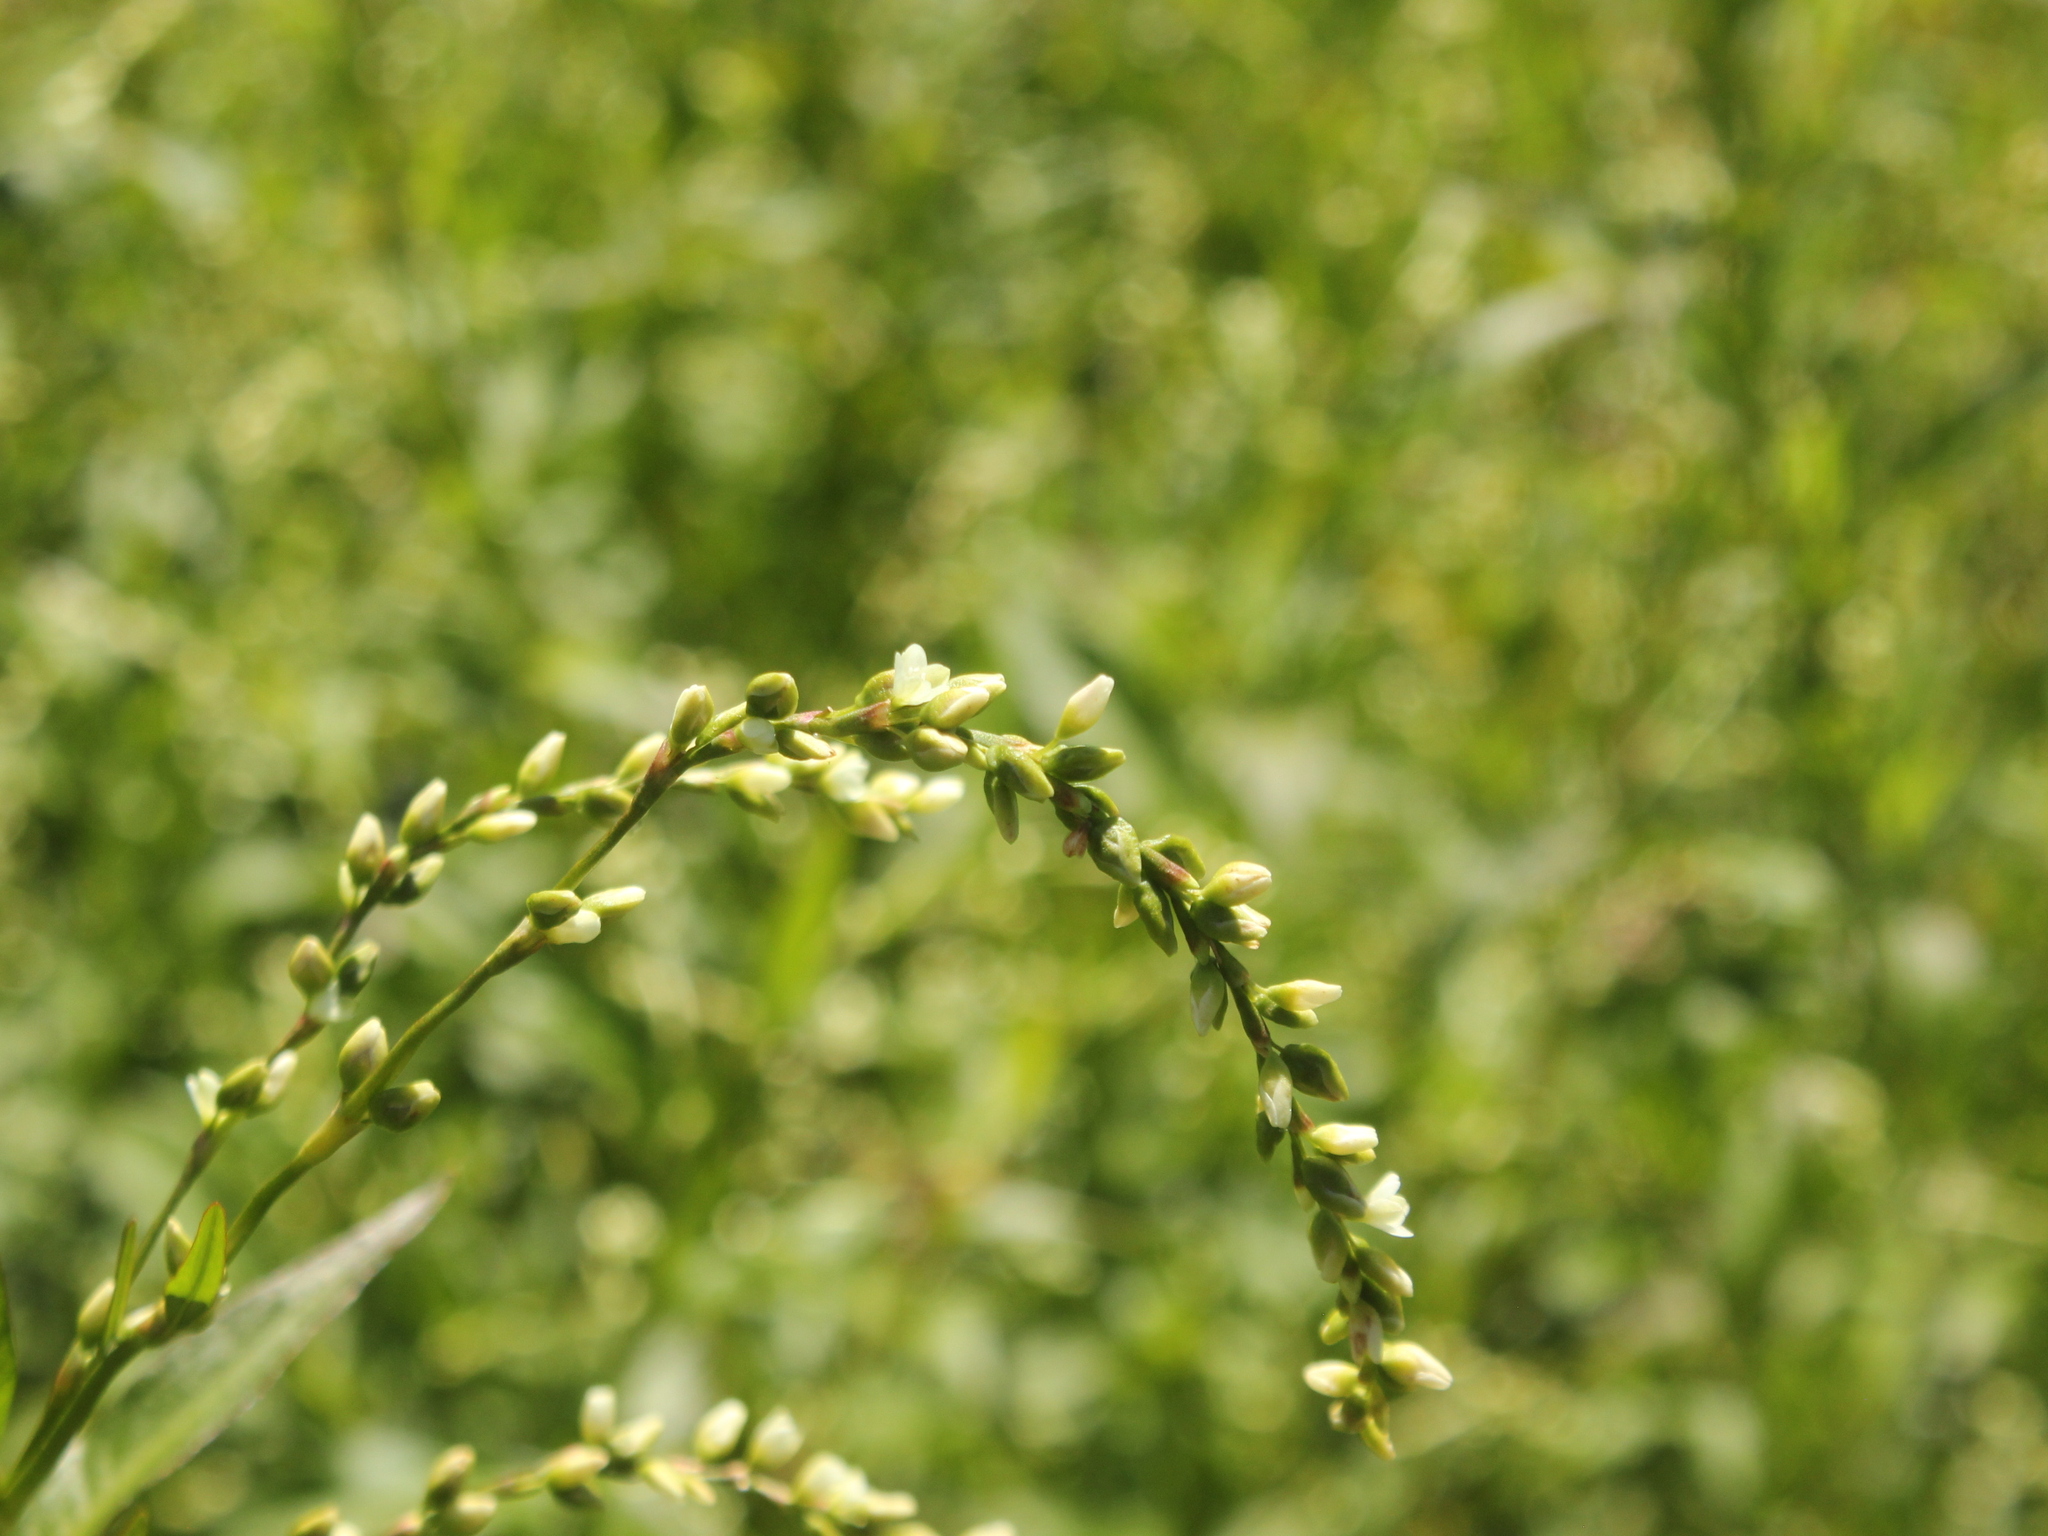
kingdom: Plantae
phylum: Tracheophyta
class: Magnoliopsida
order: Caryophyllales
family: Polygonaceae
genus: Persicaria
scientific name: Persicaria hydropiper
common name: Water-pepper
